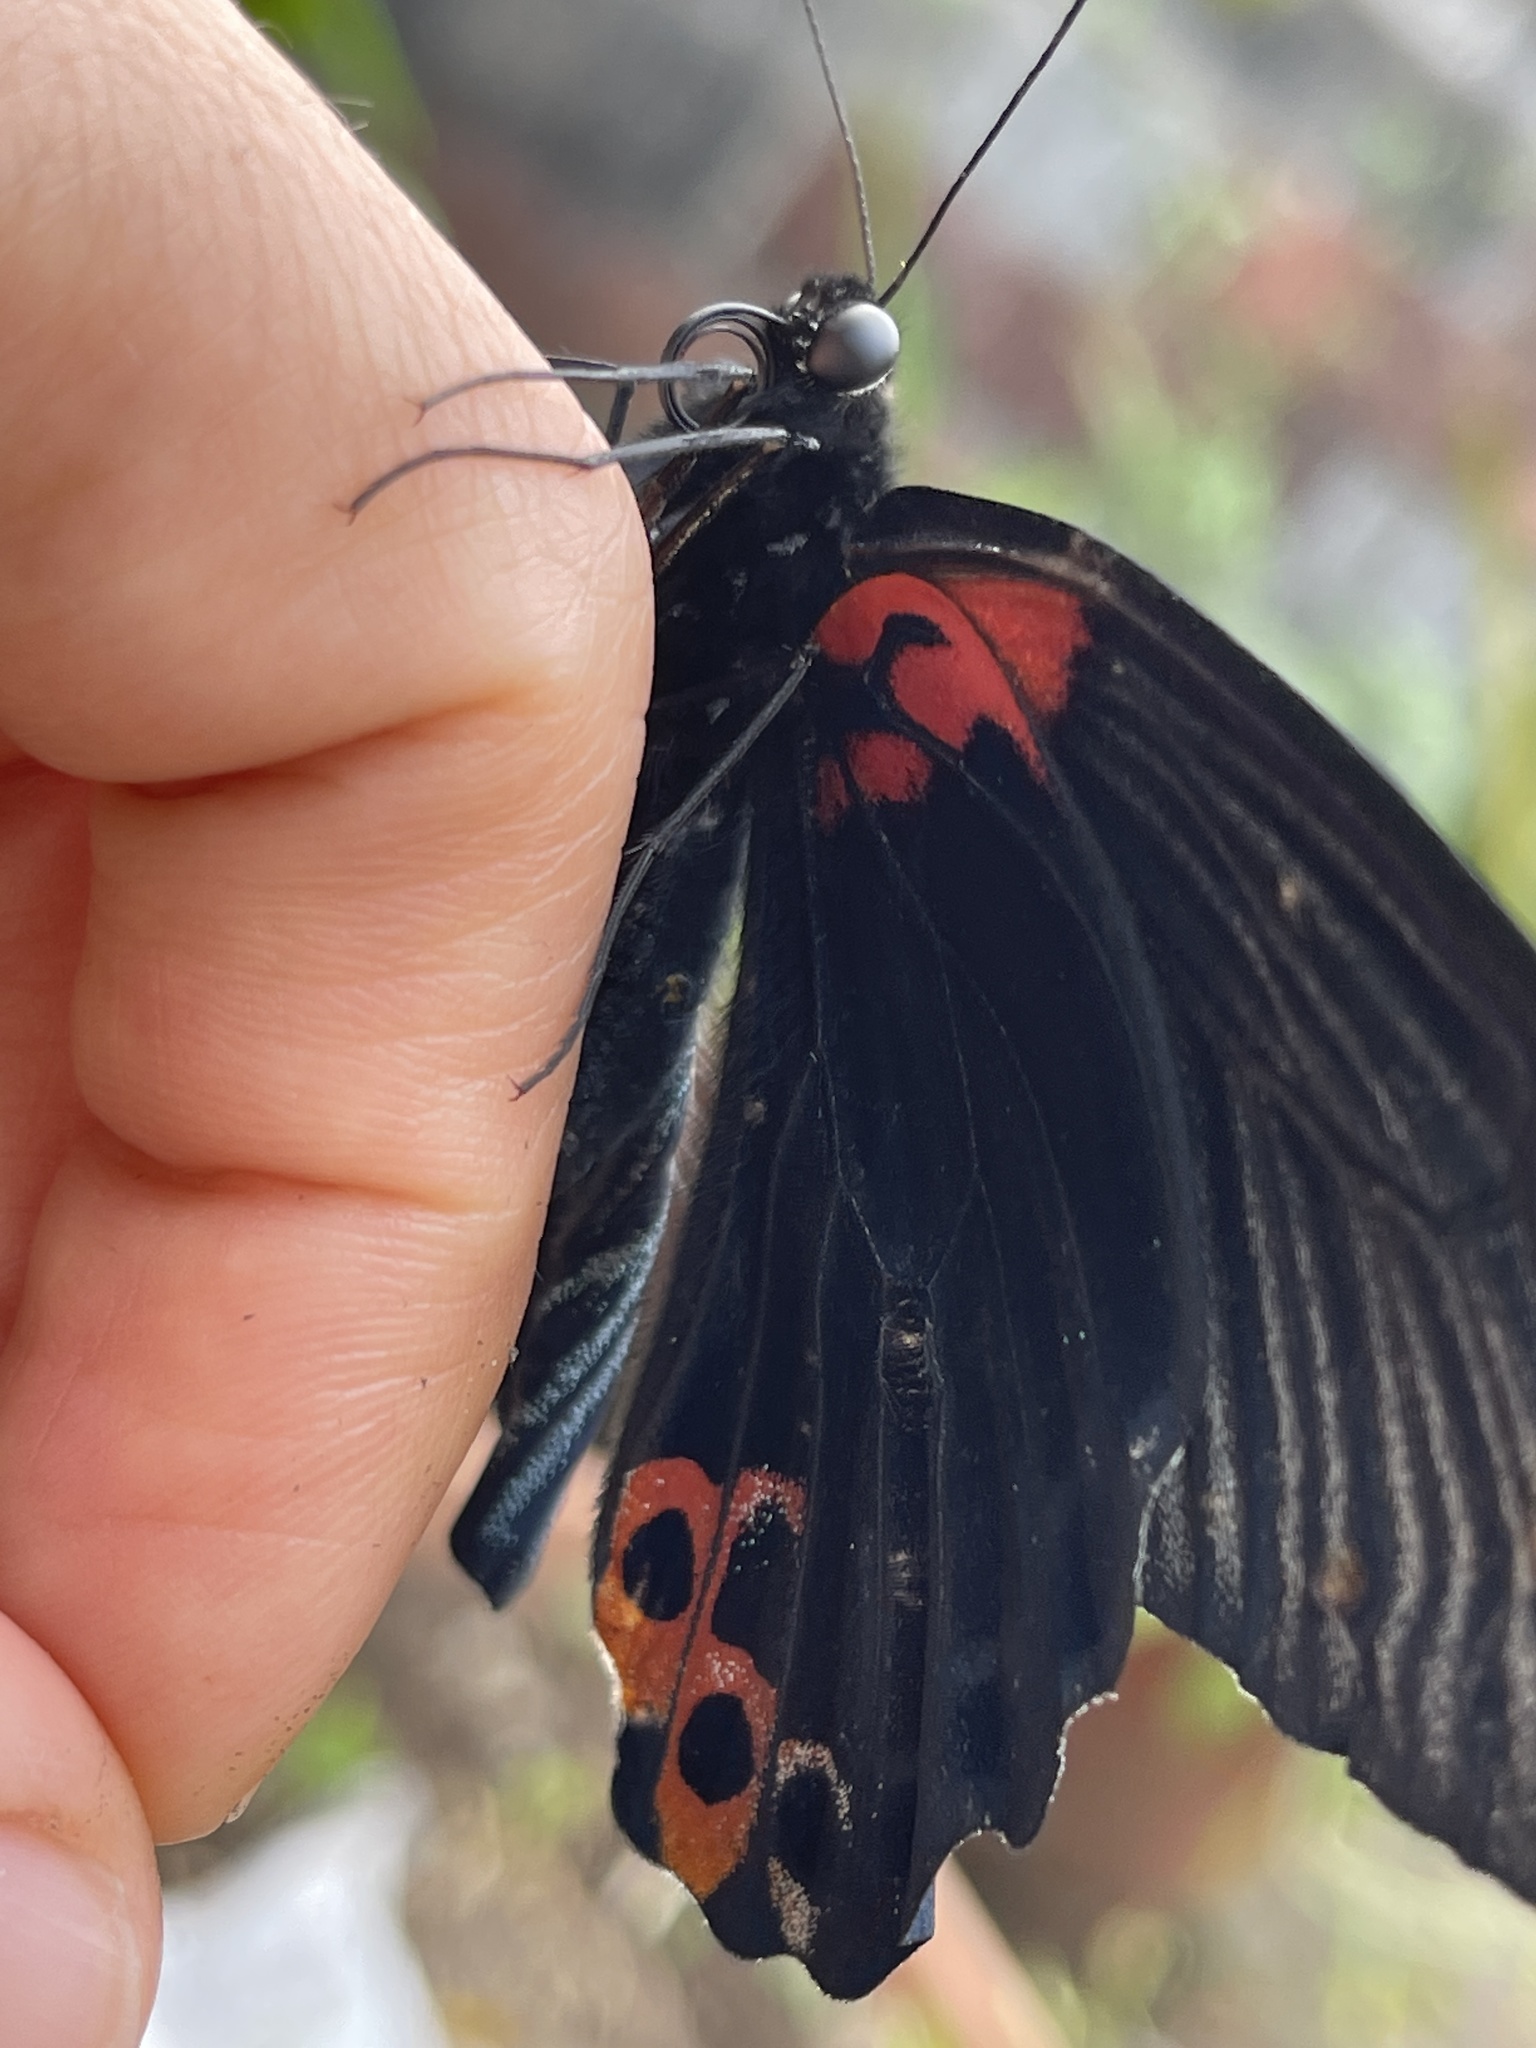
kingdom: Animalia
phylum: Arthropoda
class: Insecta
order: Lepidoptera
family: Papilionidae
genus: Papilio
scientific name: Papilio memnon
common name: Great mormon
